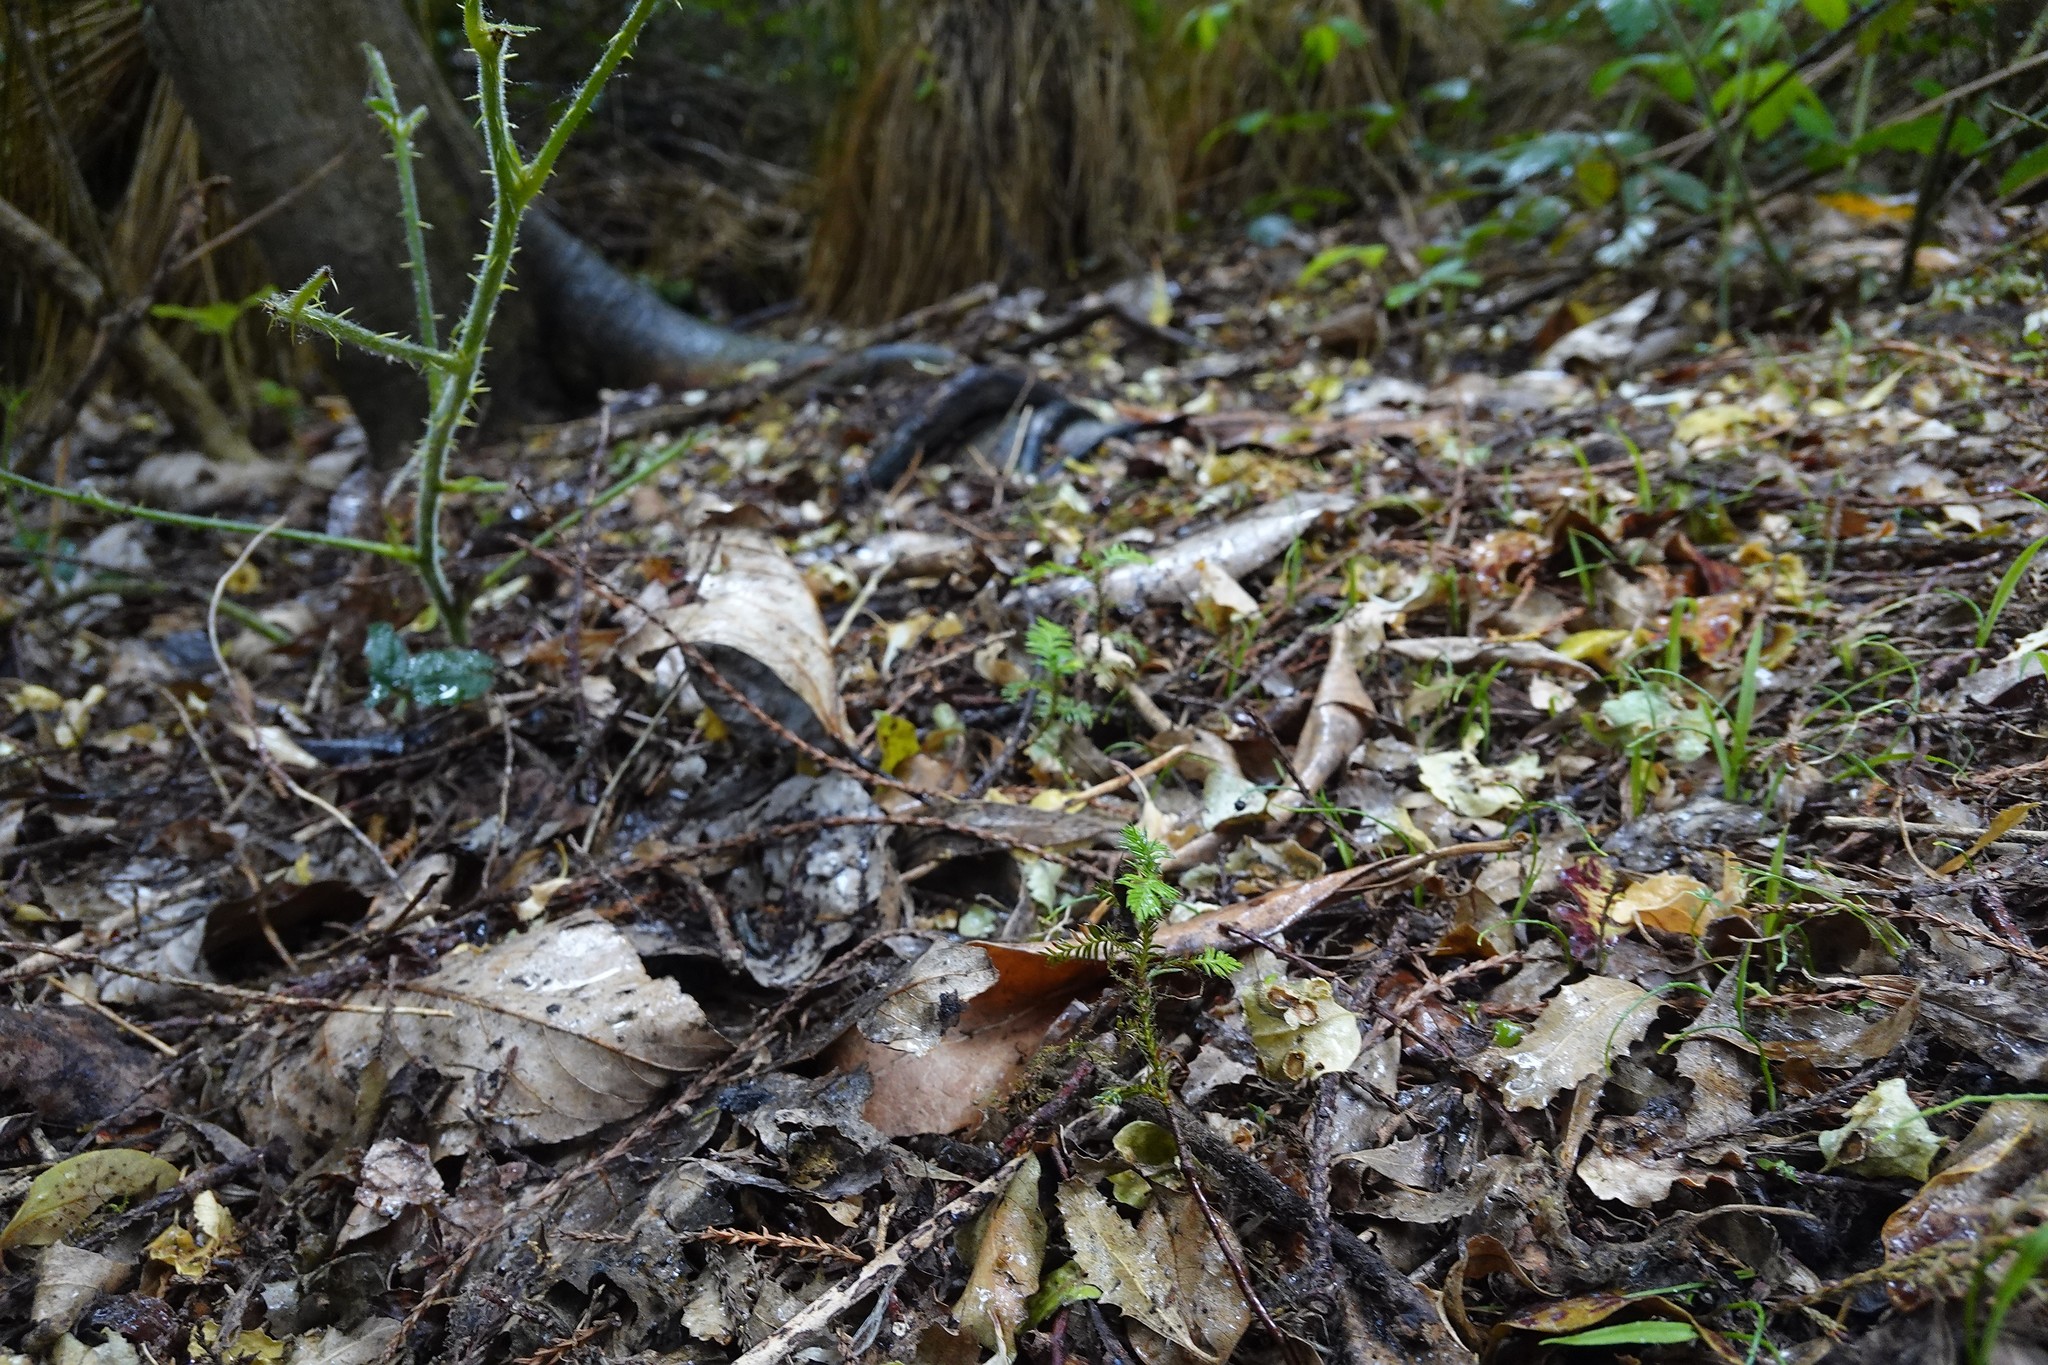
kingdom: Plantae
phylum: Tracheophyta
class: Pinopsida
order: Pinales
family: Podocarpaceae
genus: Dacrycarpus
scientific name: Dacrycarpus dacrydioides
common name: White pine
